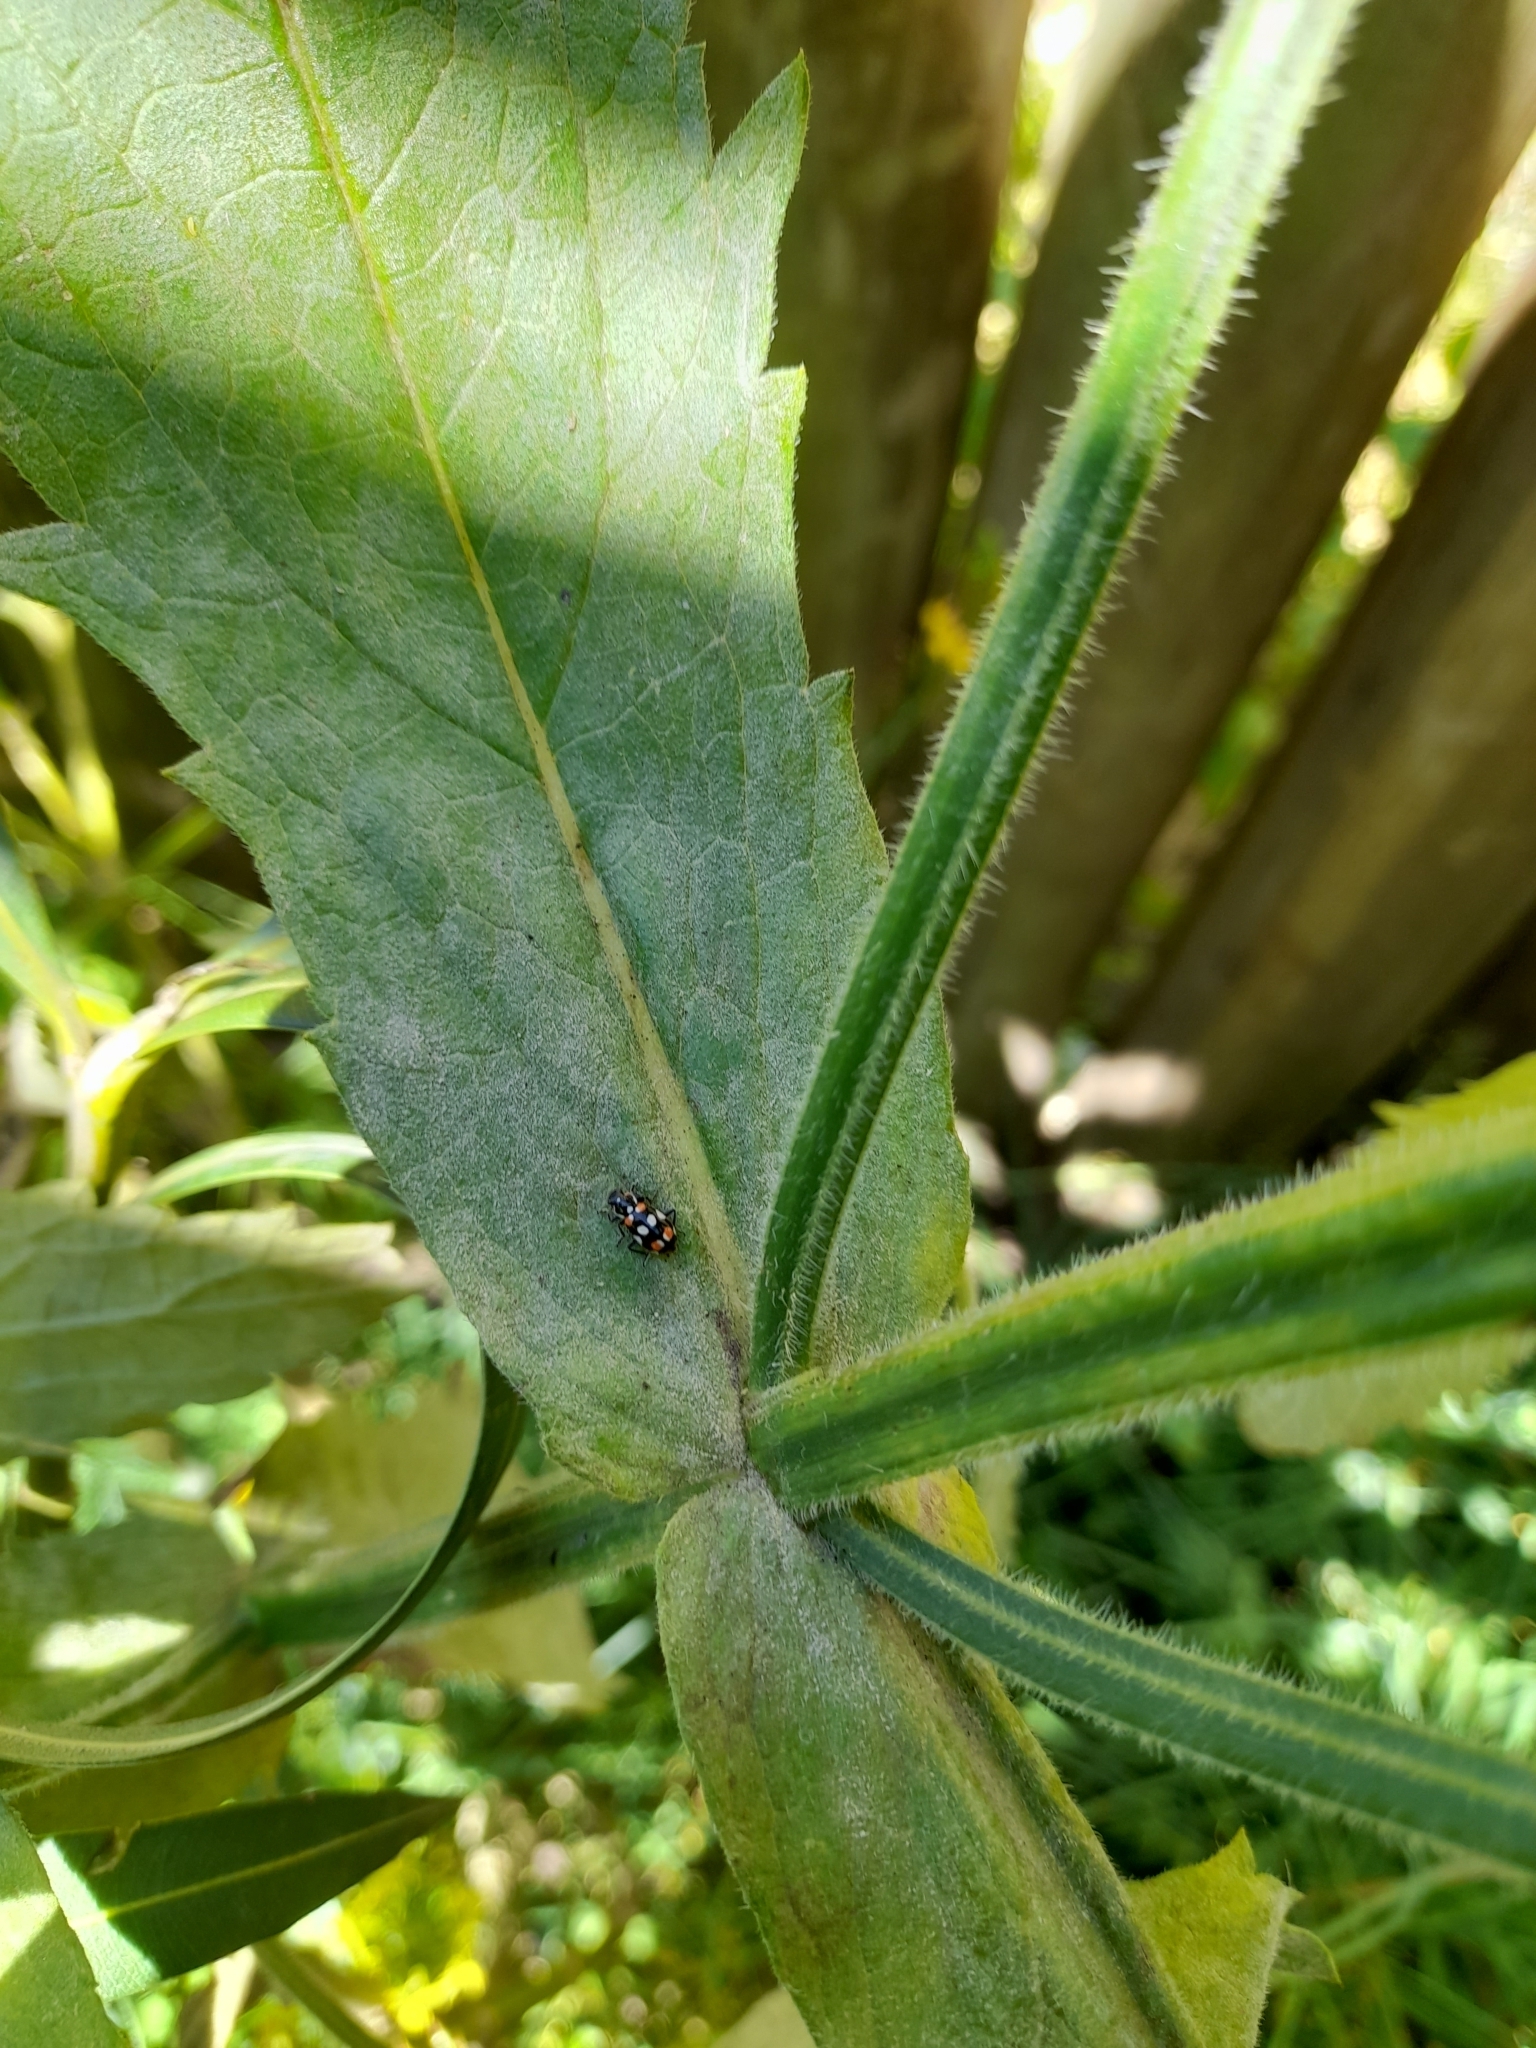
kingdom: Animalia
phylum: Arthropoda
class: Insecta
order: Coleoptera
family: Coccinellidae
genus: Eriopis
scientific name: Eriopis connexa
